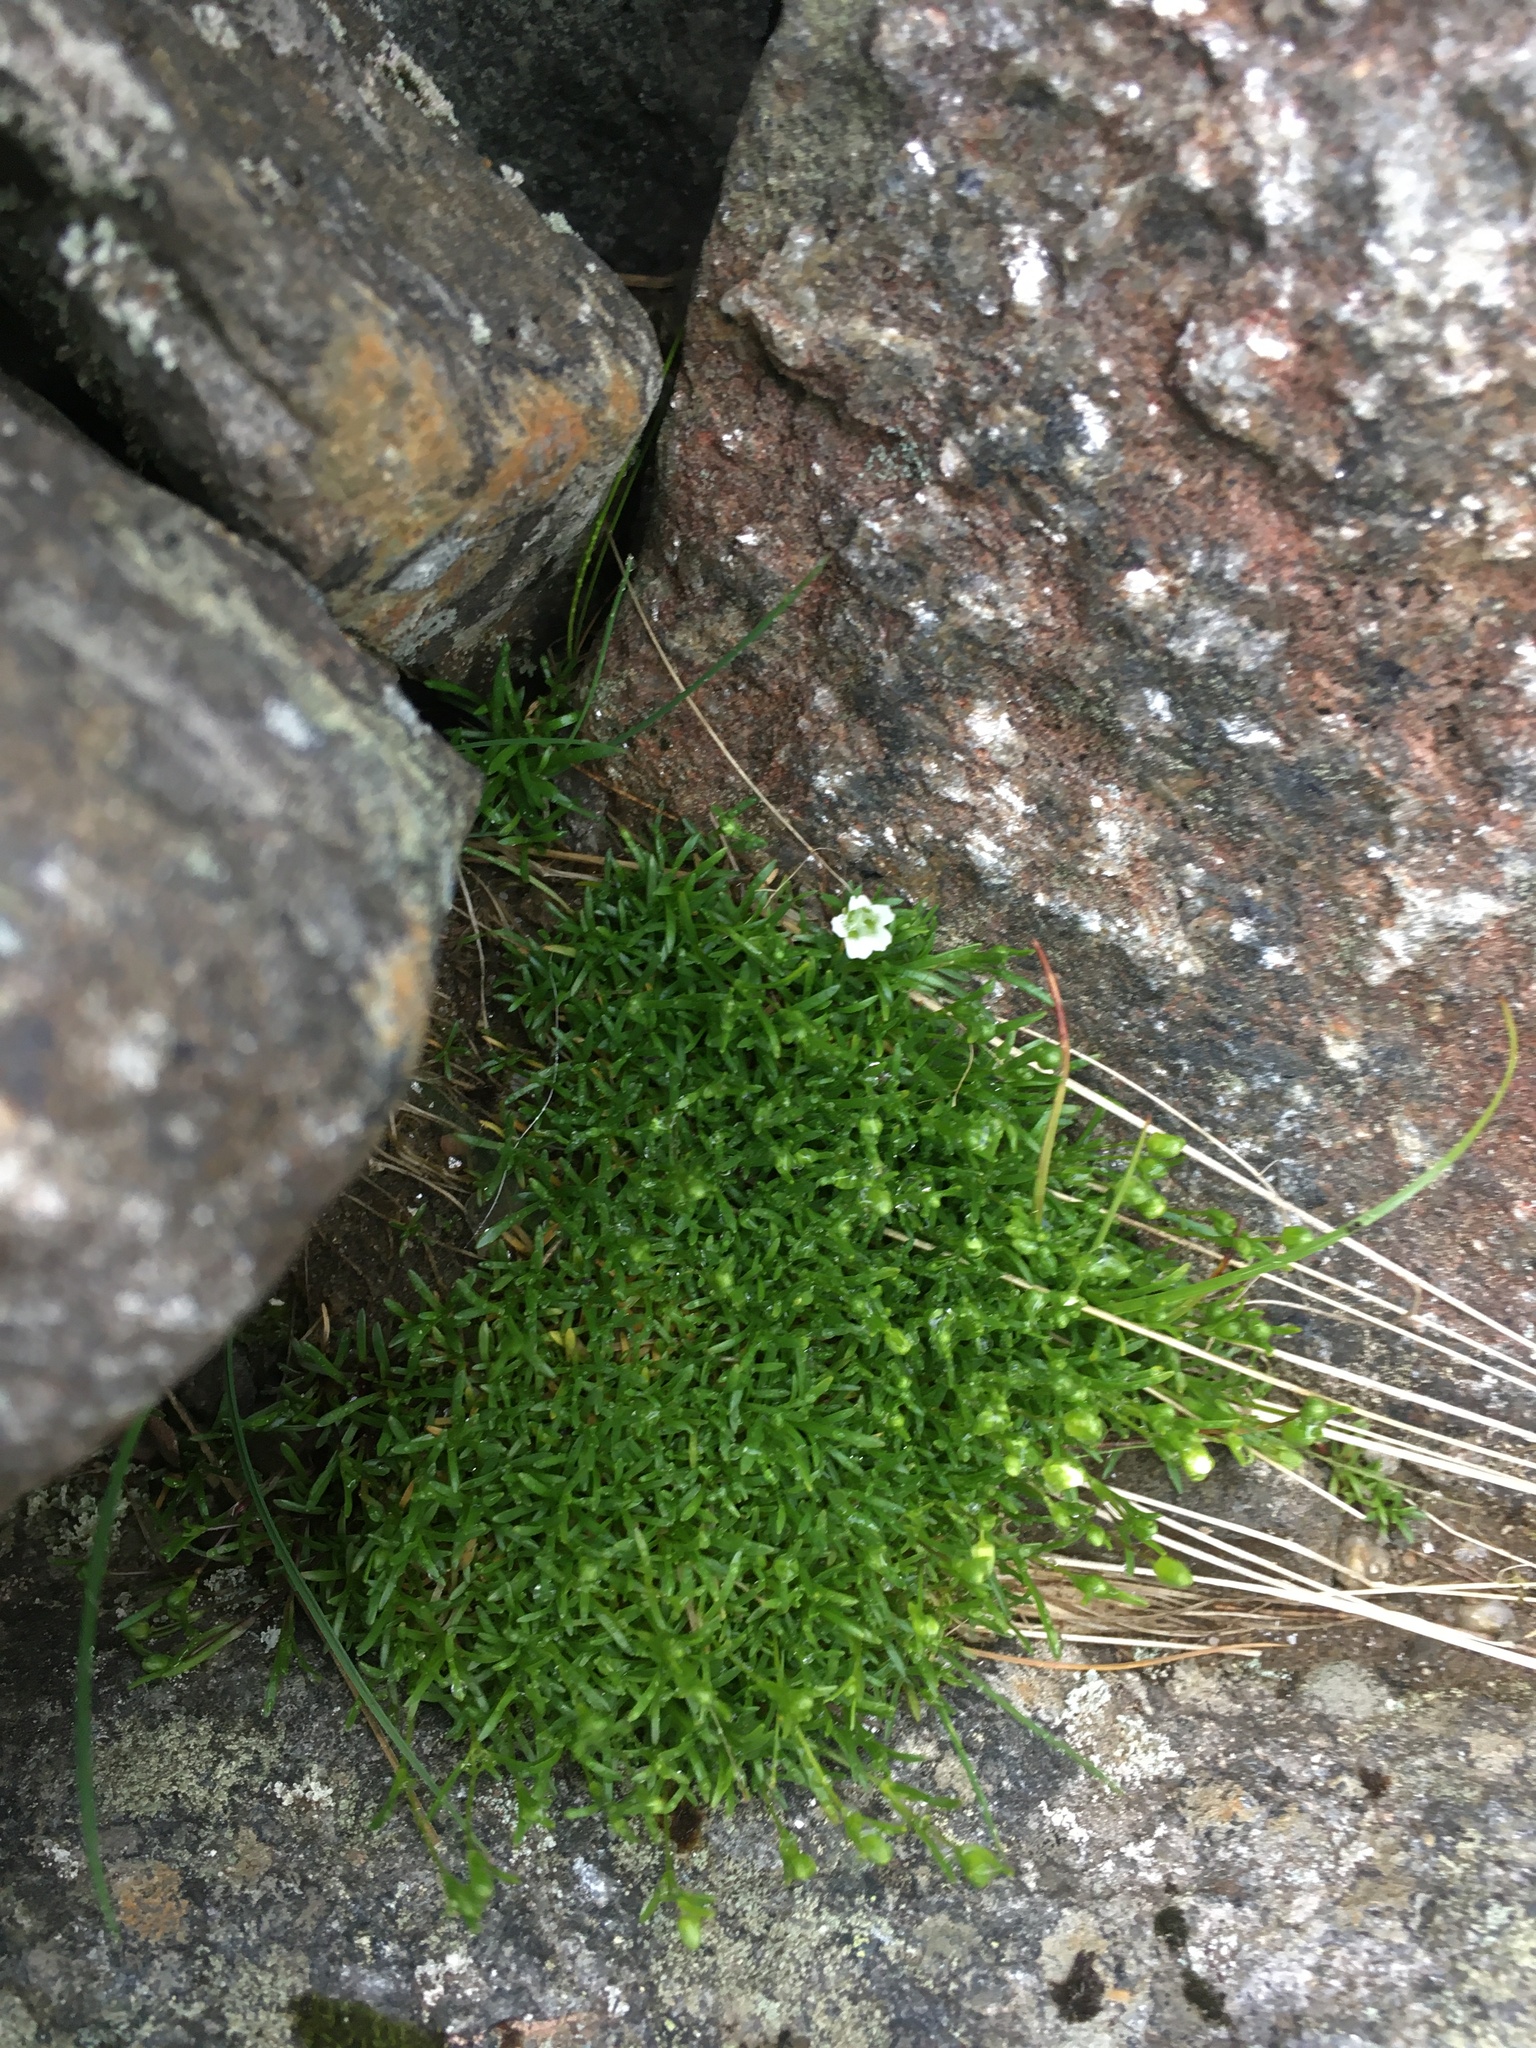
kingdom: Plantae
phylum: Tracheophyta
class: Magnoliopsida
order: Caryophyllales
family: Caryophyllaceae
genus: Geocarpon
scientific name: Geocarpon groenlandicum
